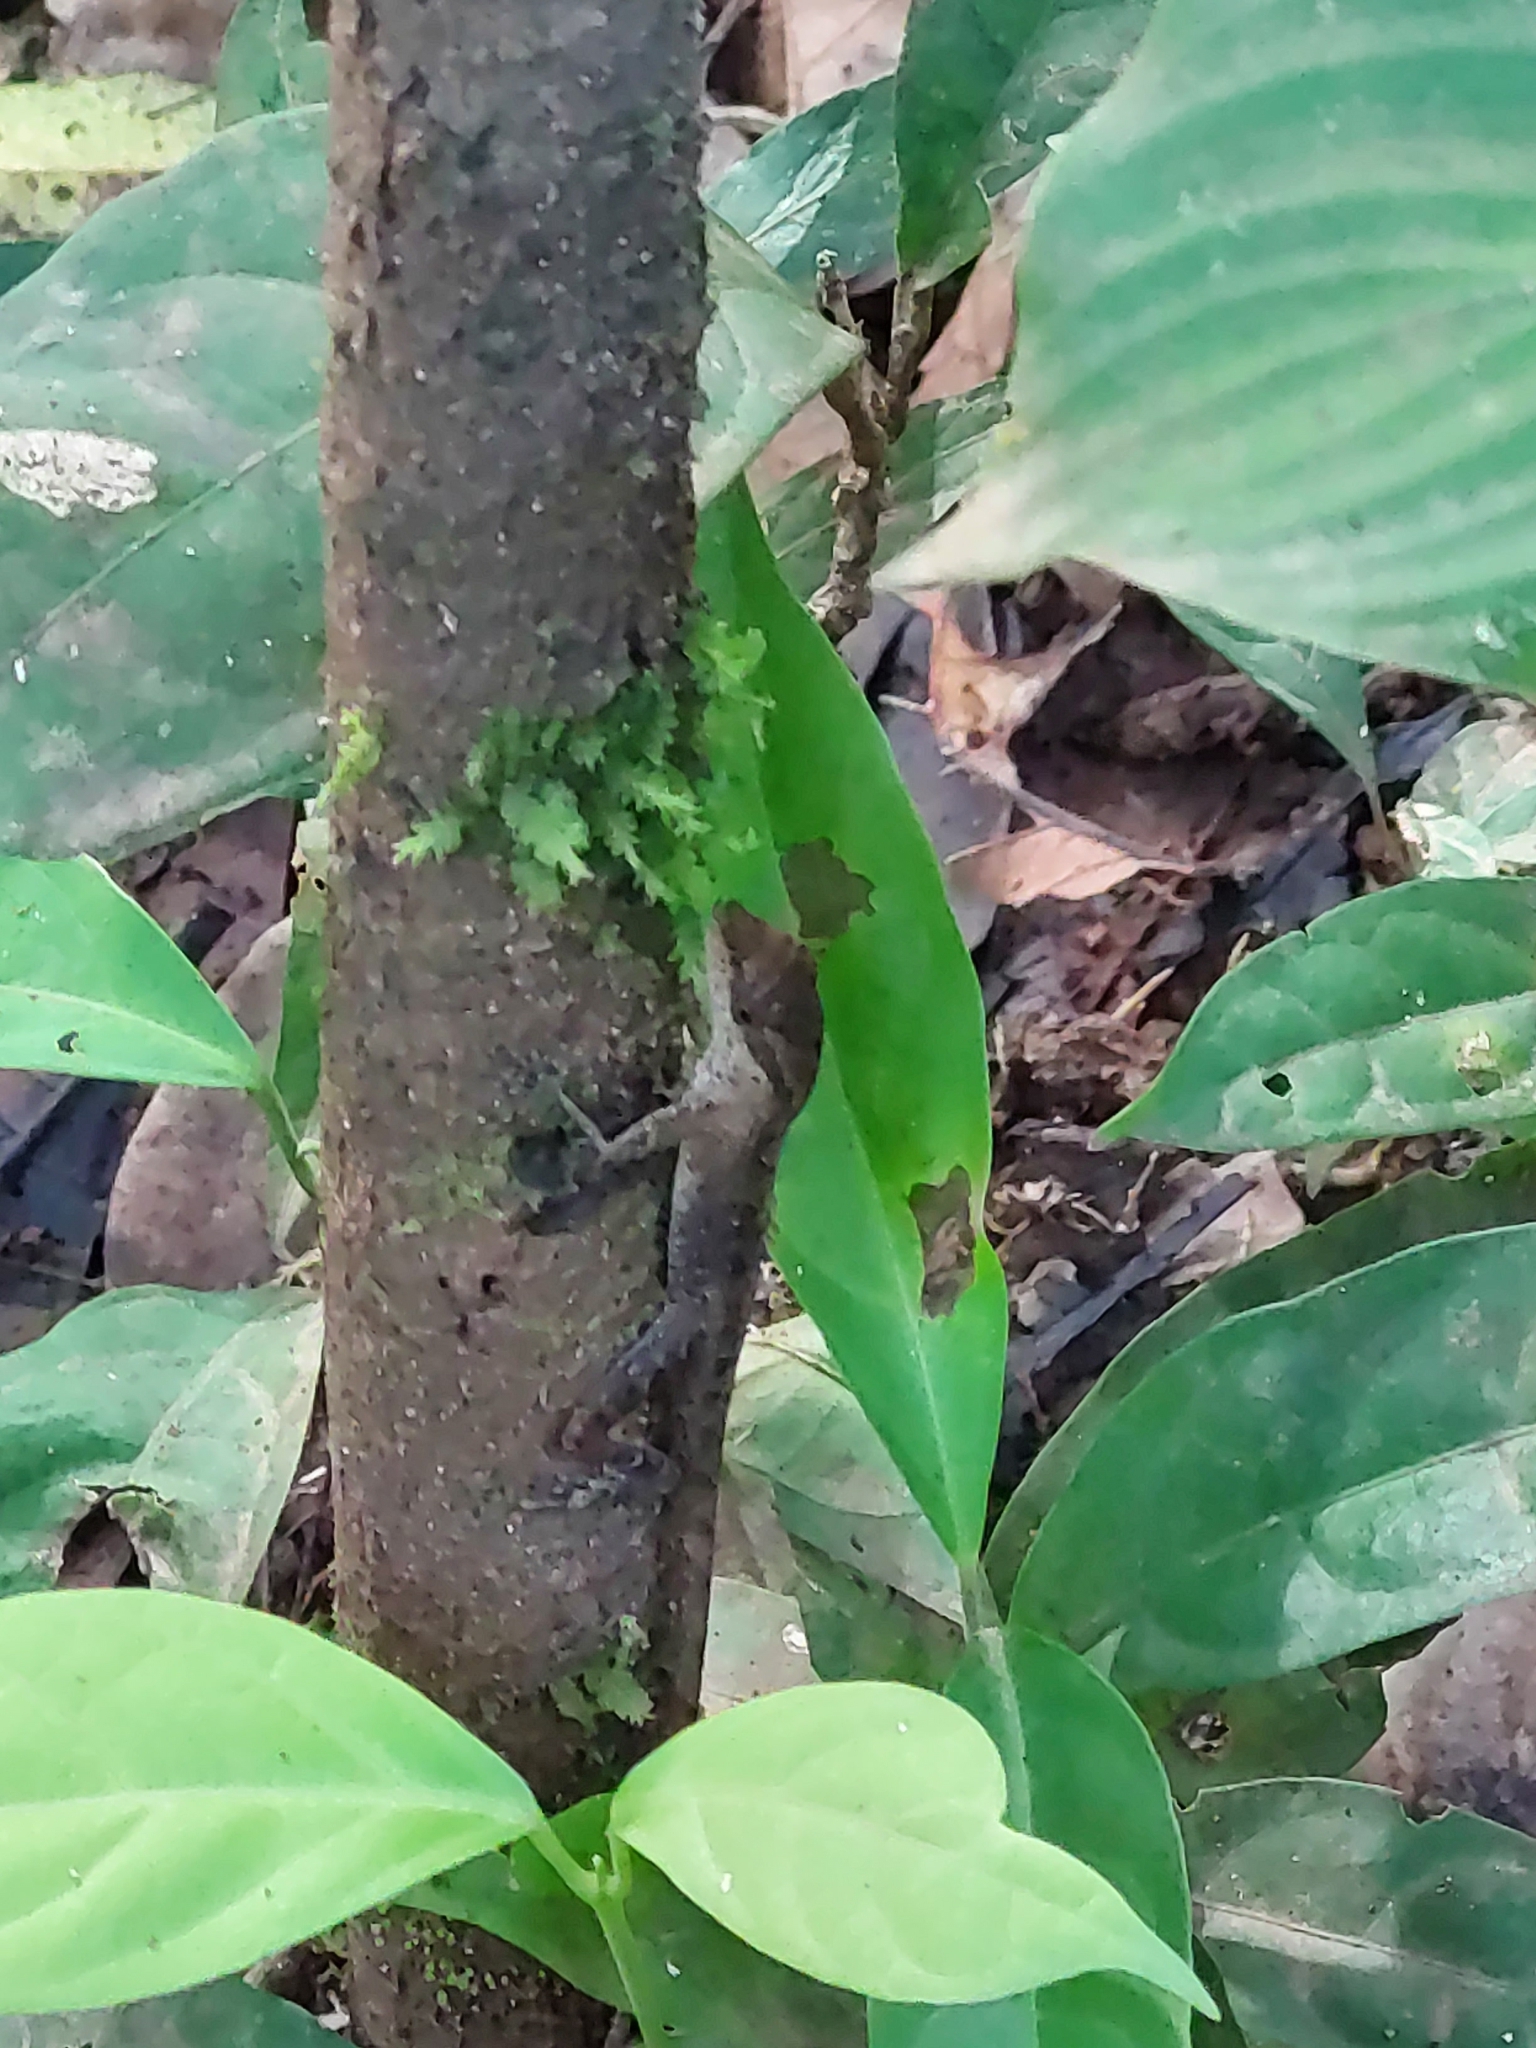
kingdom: Animalia
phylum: Chordata
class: Squamata
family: Dactyloidae
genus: Anolis
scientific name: Anolis gaigei
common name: Gaige’s anole
